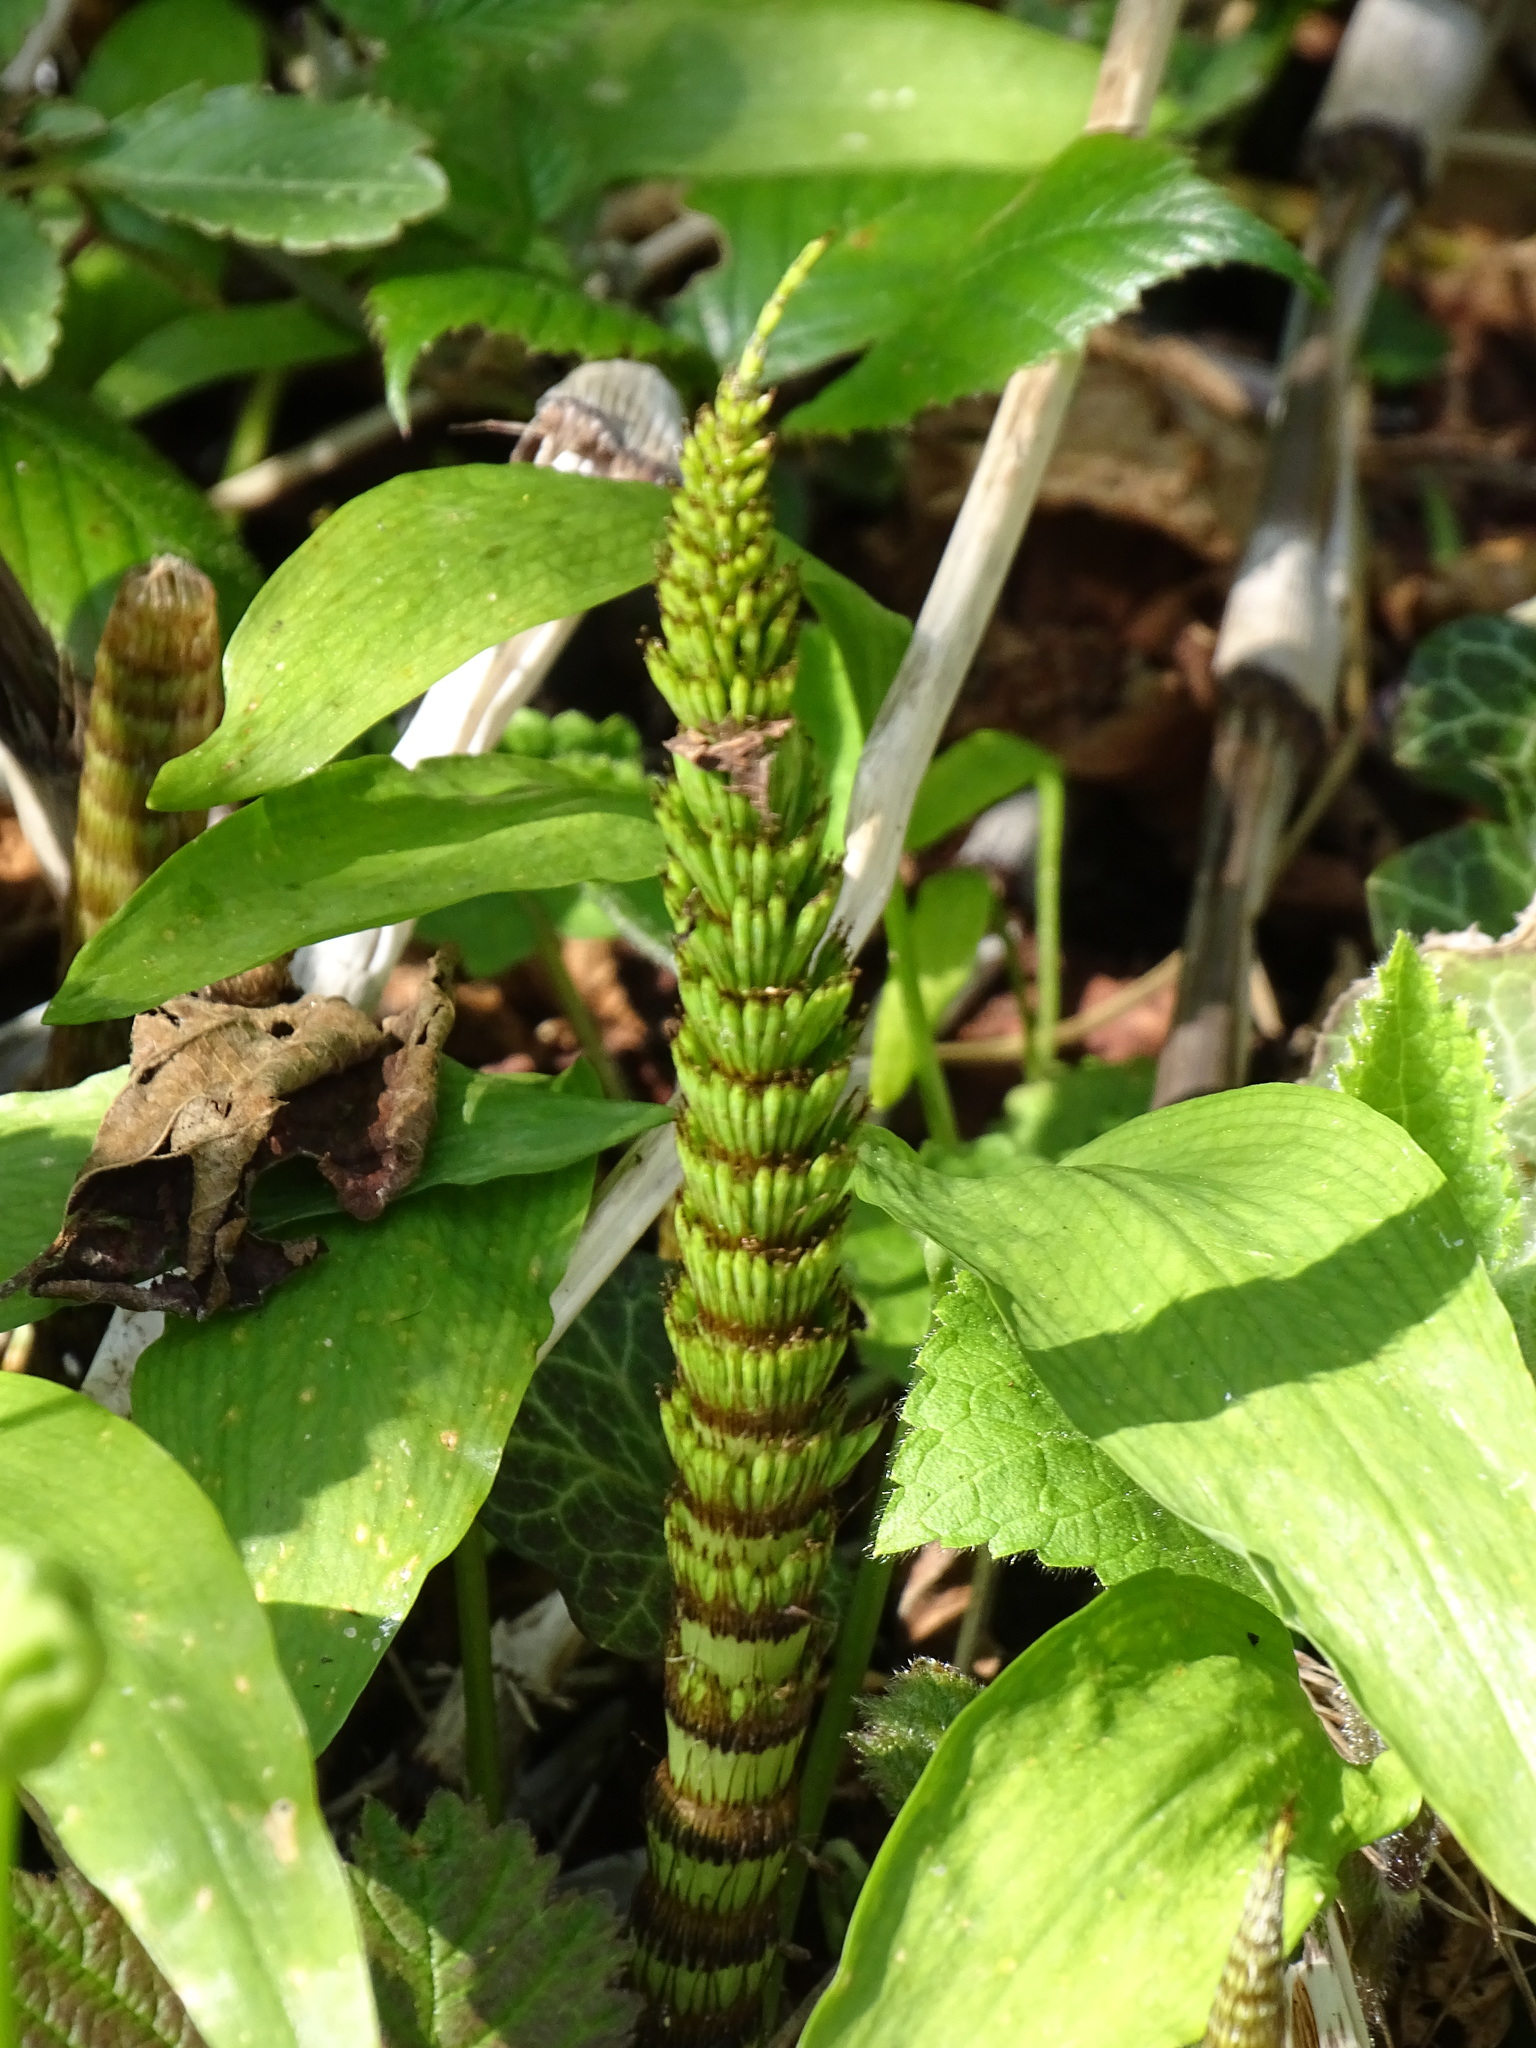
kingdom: Plantae
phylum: Tracheophyta
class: Polypodiopsida
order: Equisetales
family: Equisetaceae
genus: Equisetum
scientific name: Equisetum telmateia
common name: Great horsetail
